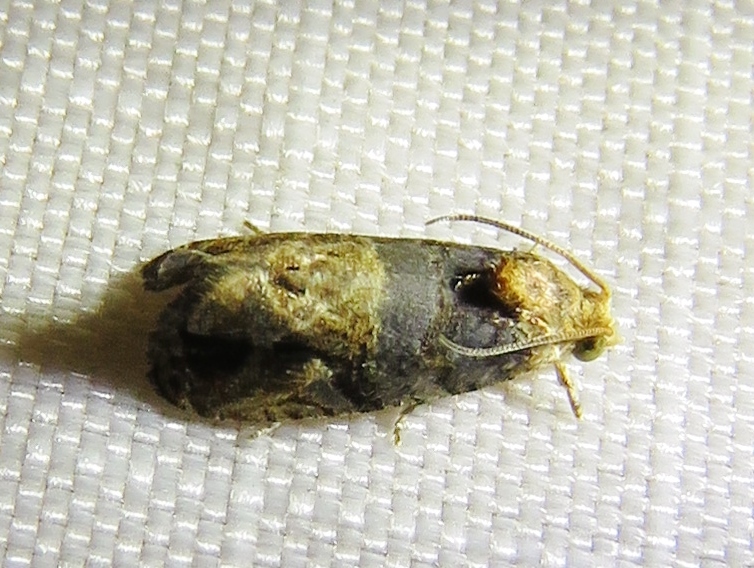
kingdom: Animalia
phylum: Arthropoda
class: Insecta
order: Lepidoptera
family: Tortricidae
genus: Paralobesia
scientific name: Paralobesia viteana
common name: Grape berry moth
